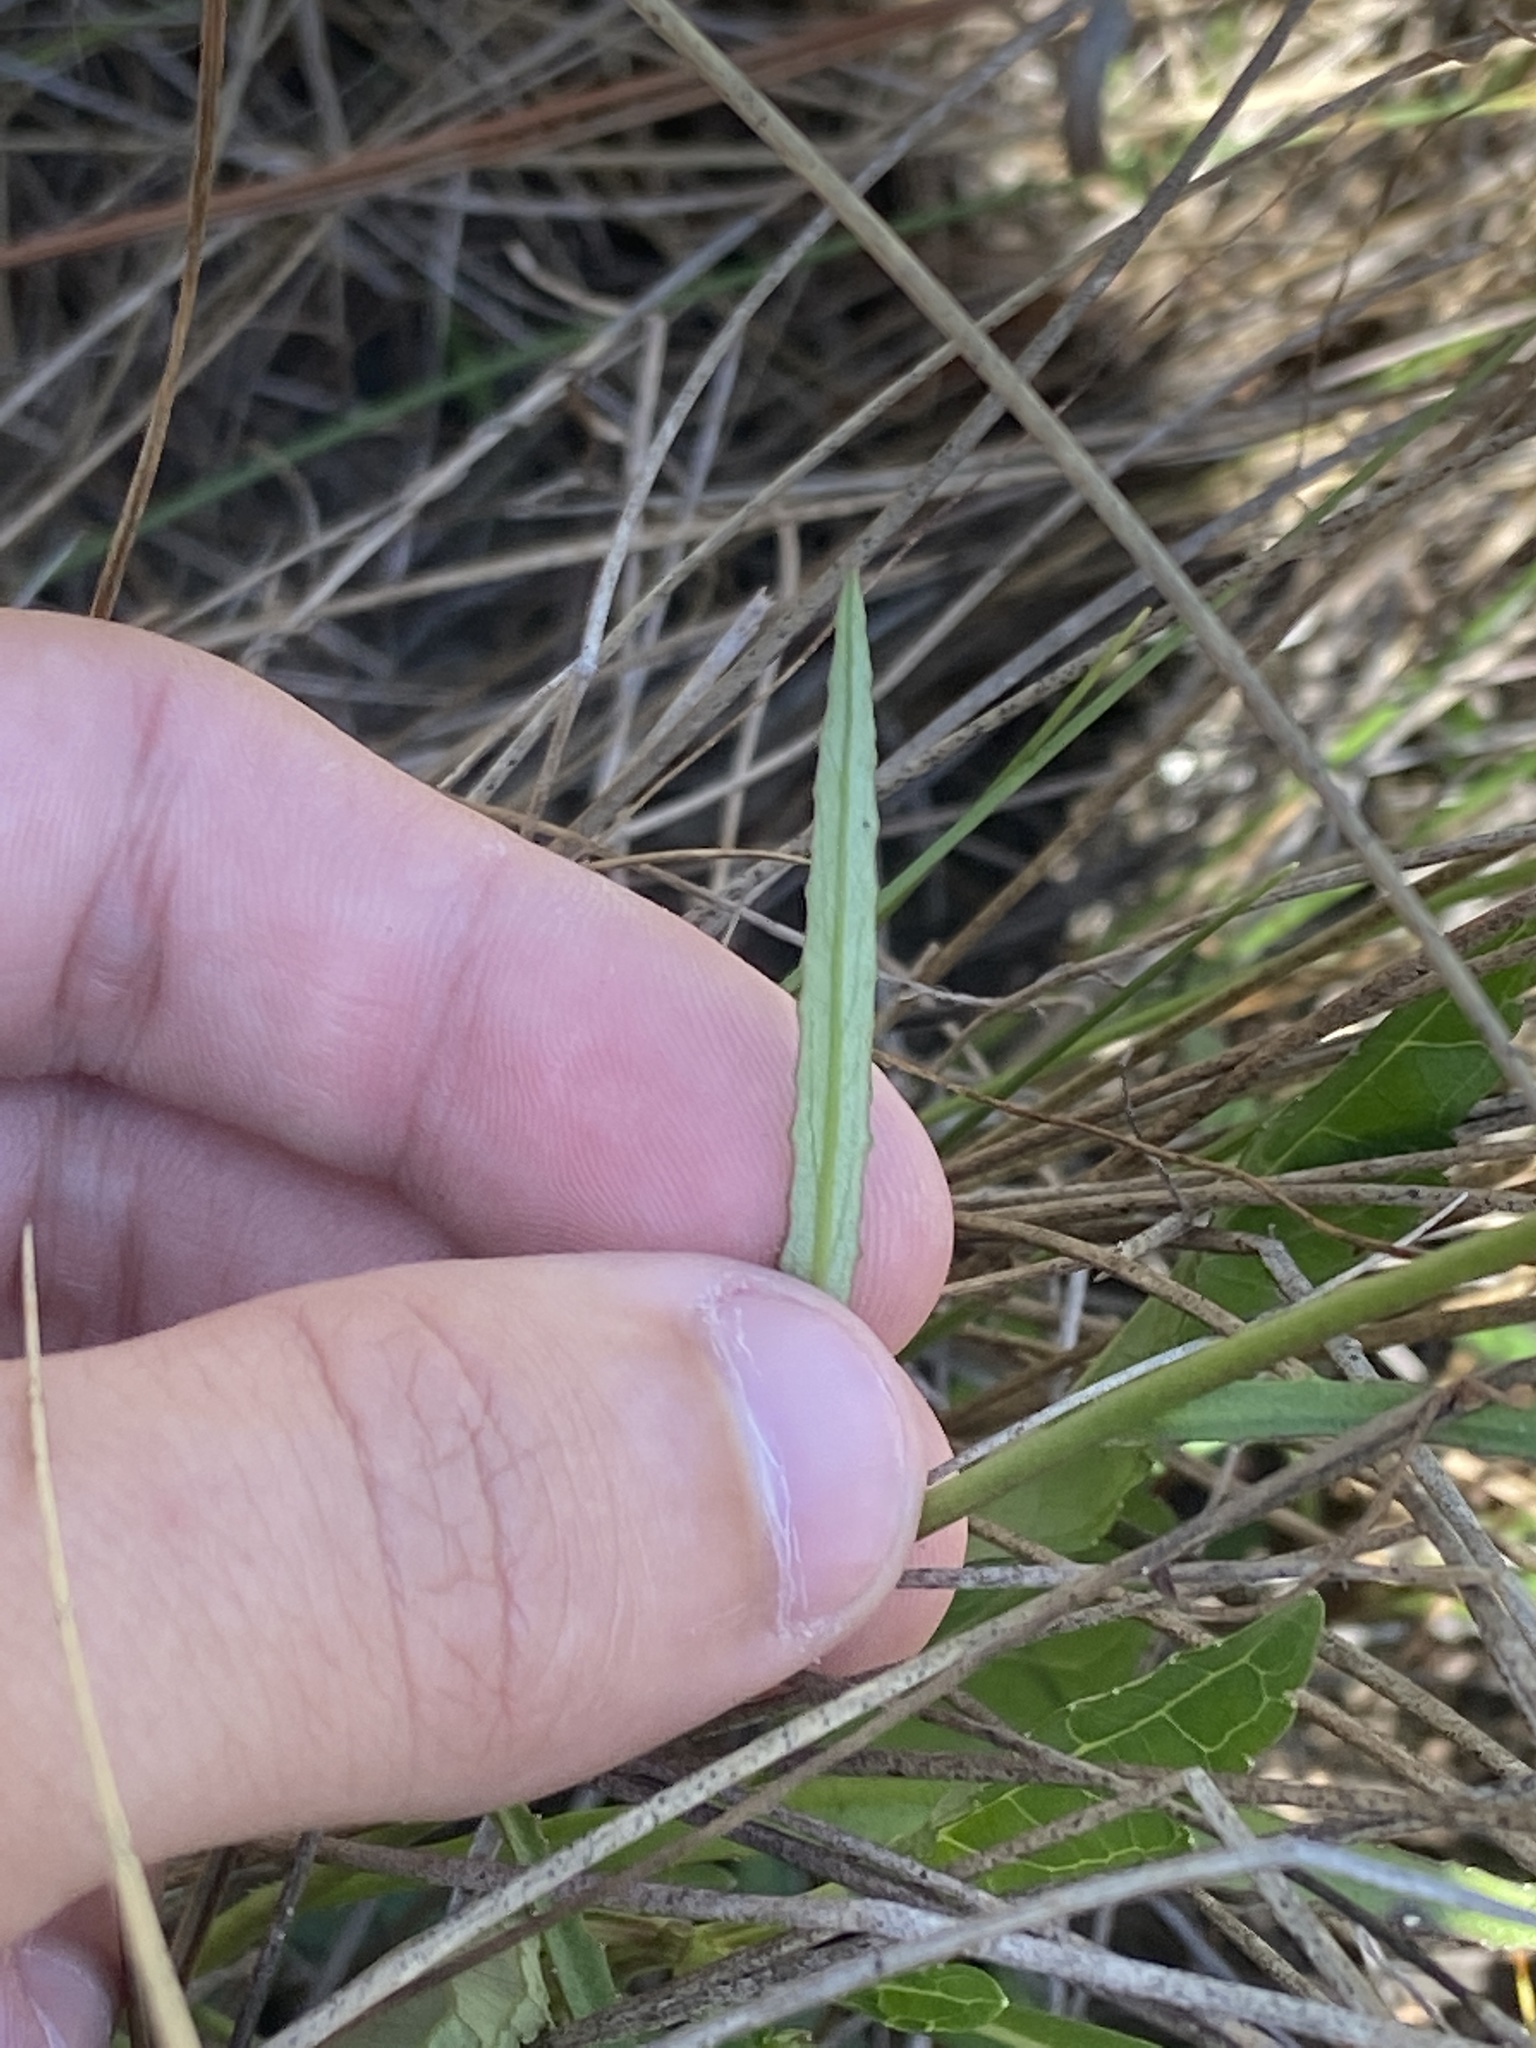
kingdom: Plantae
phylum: Tracheophyta
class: Magnoliopsida
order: Asterales
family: Campanulaceae
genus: Lobelia
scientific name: Lobelia glandulosa
